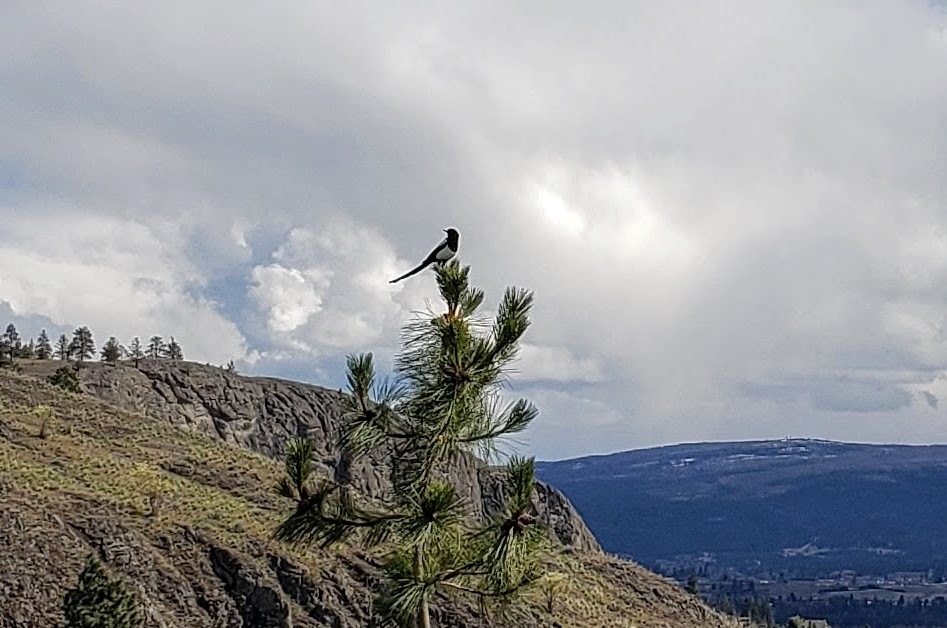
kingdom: Animalia
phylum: Chordata
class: Aves
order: Passeriformes
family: Corvidae
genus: Pica
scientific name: Pica hudsonia
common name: Black-billed magpie
